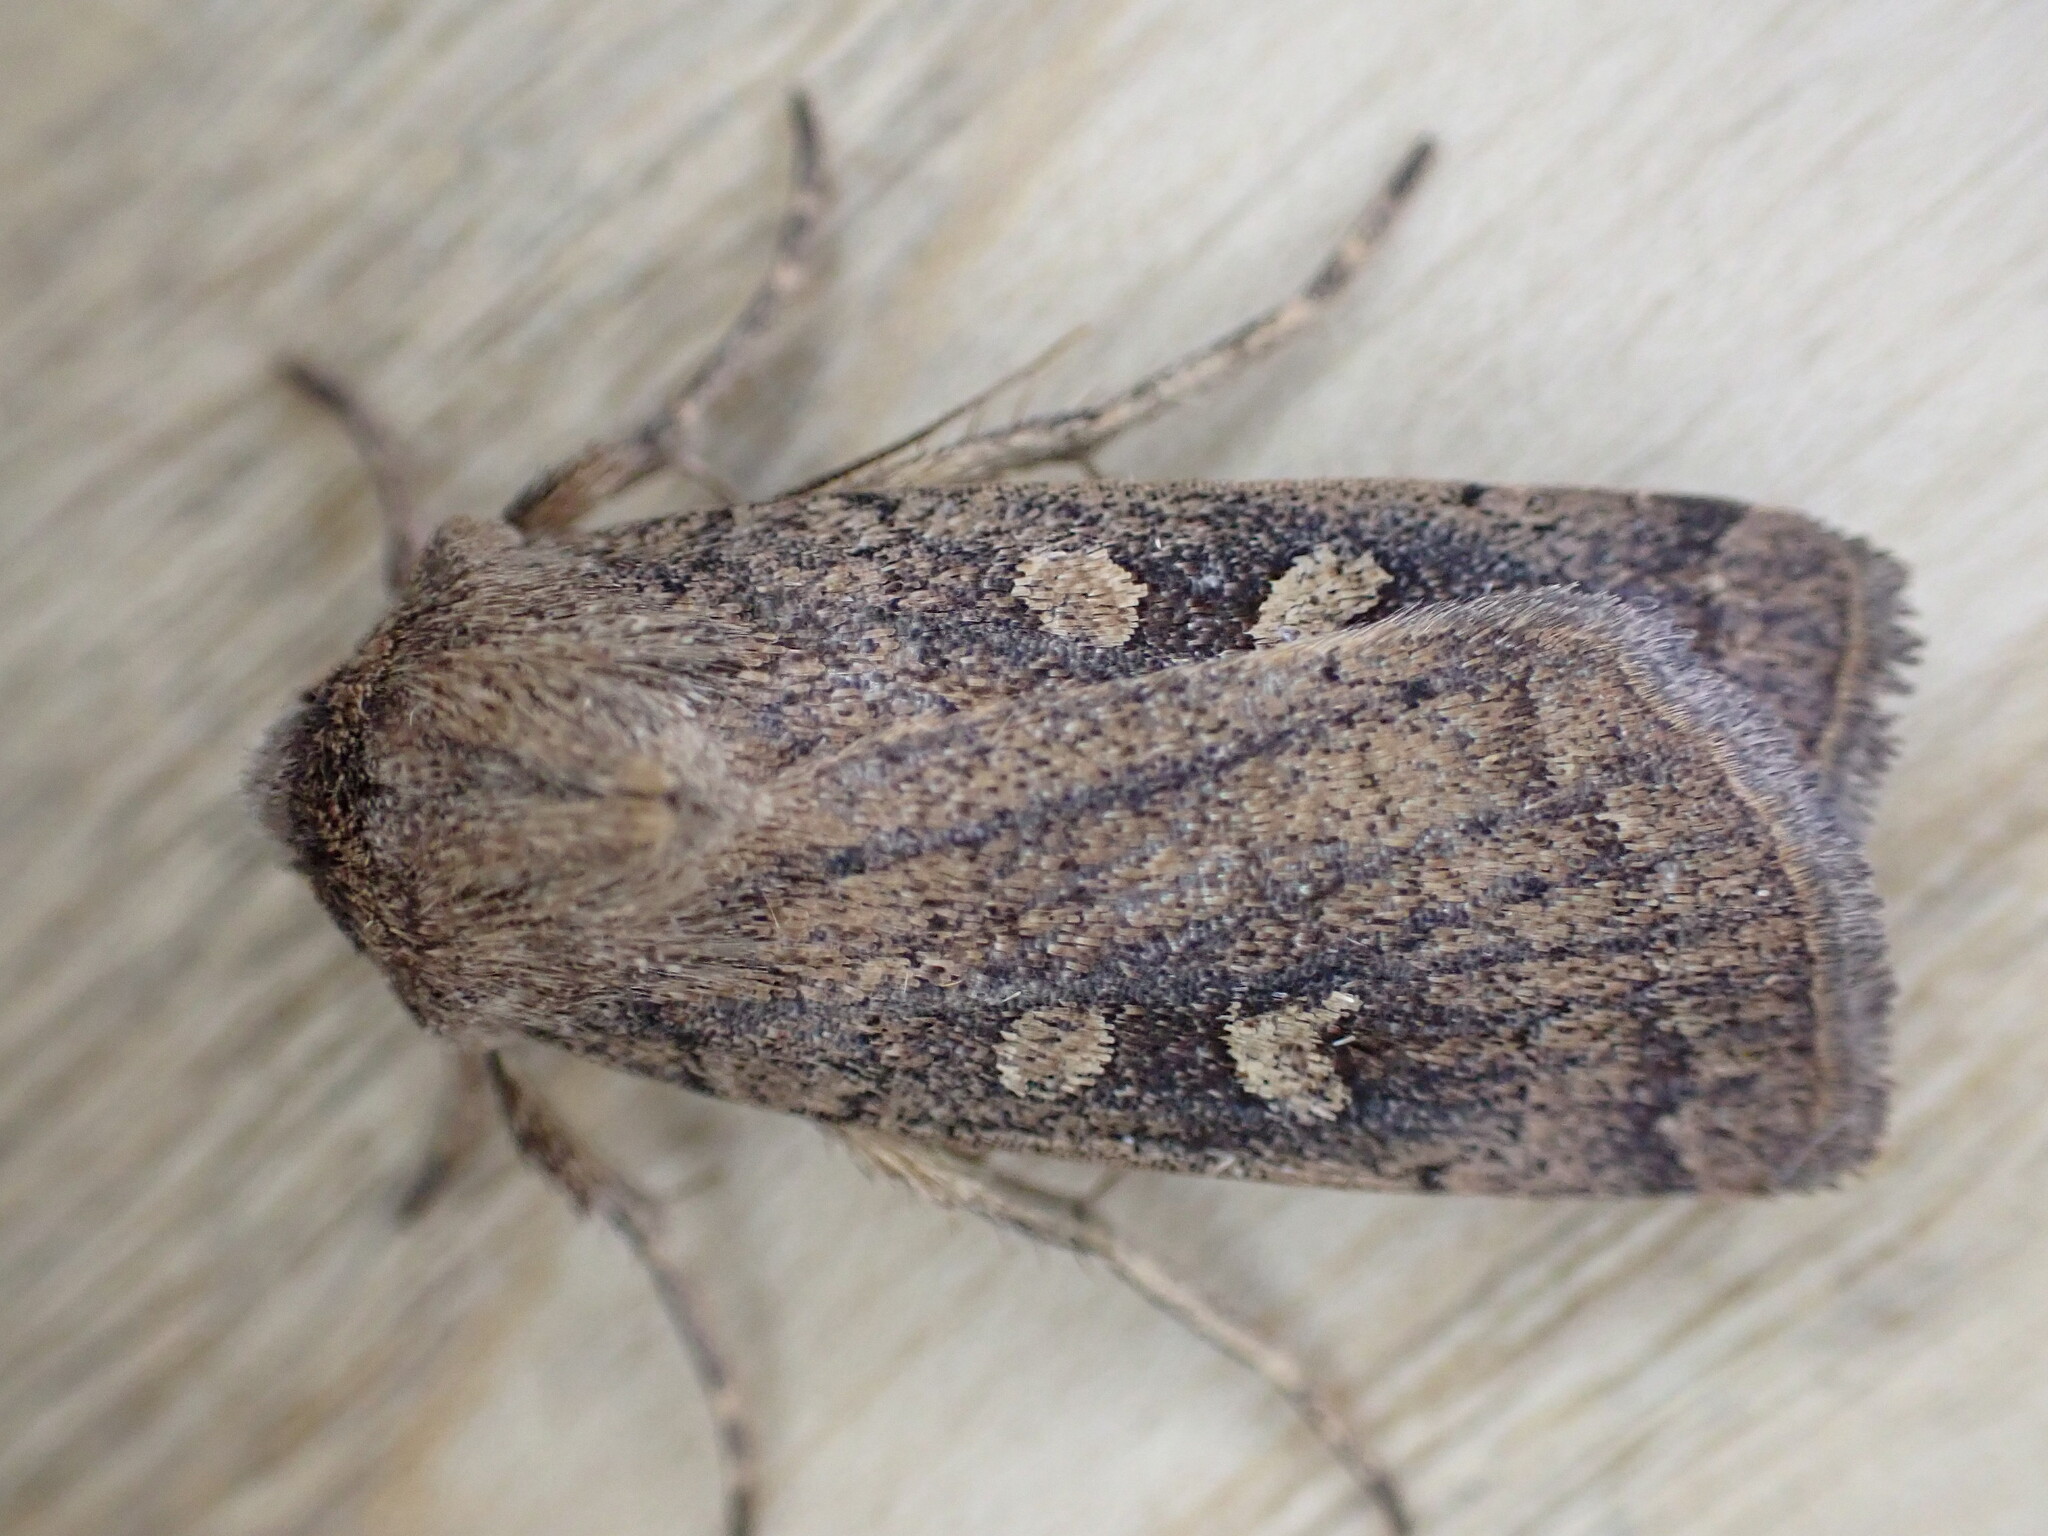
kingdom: Animalia
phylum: Arthropoda
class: Insecta
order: Lepidoptera
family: Noctuidae
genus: Xestia
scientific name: Xestia xanthographa
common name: Square-spot rustic
